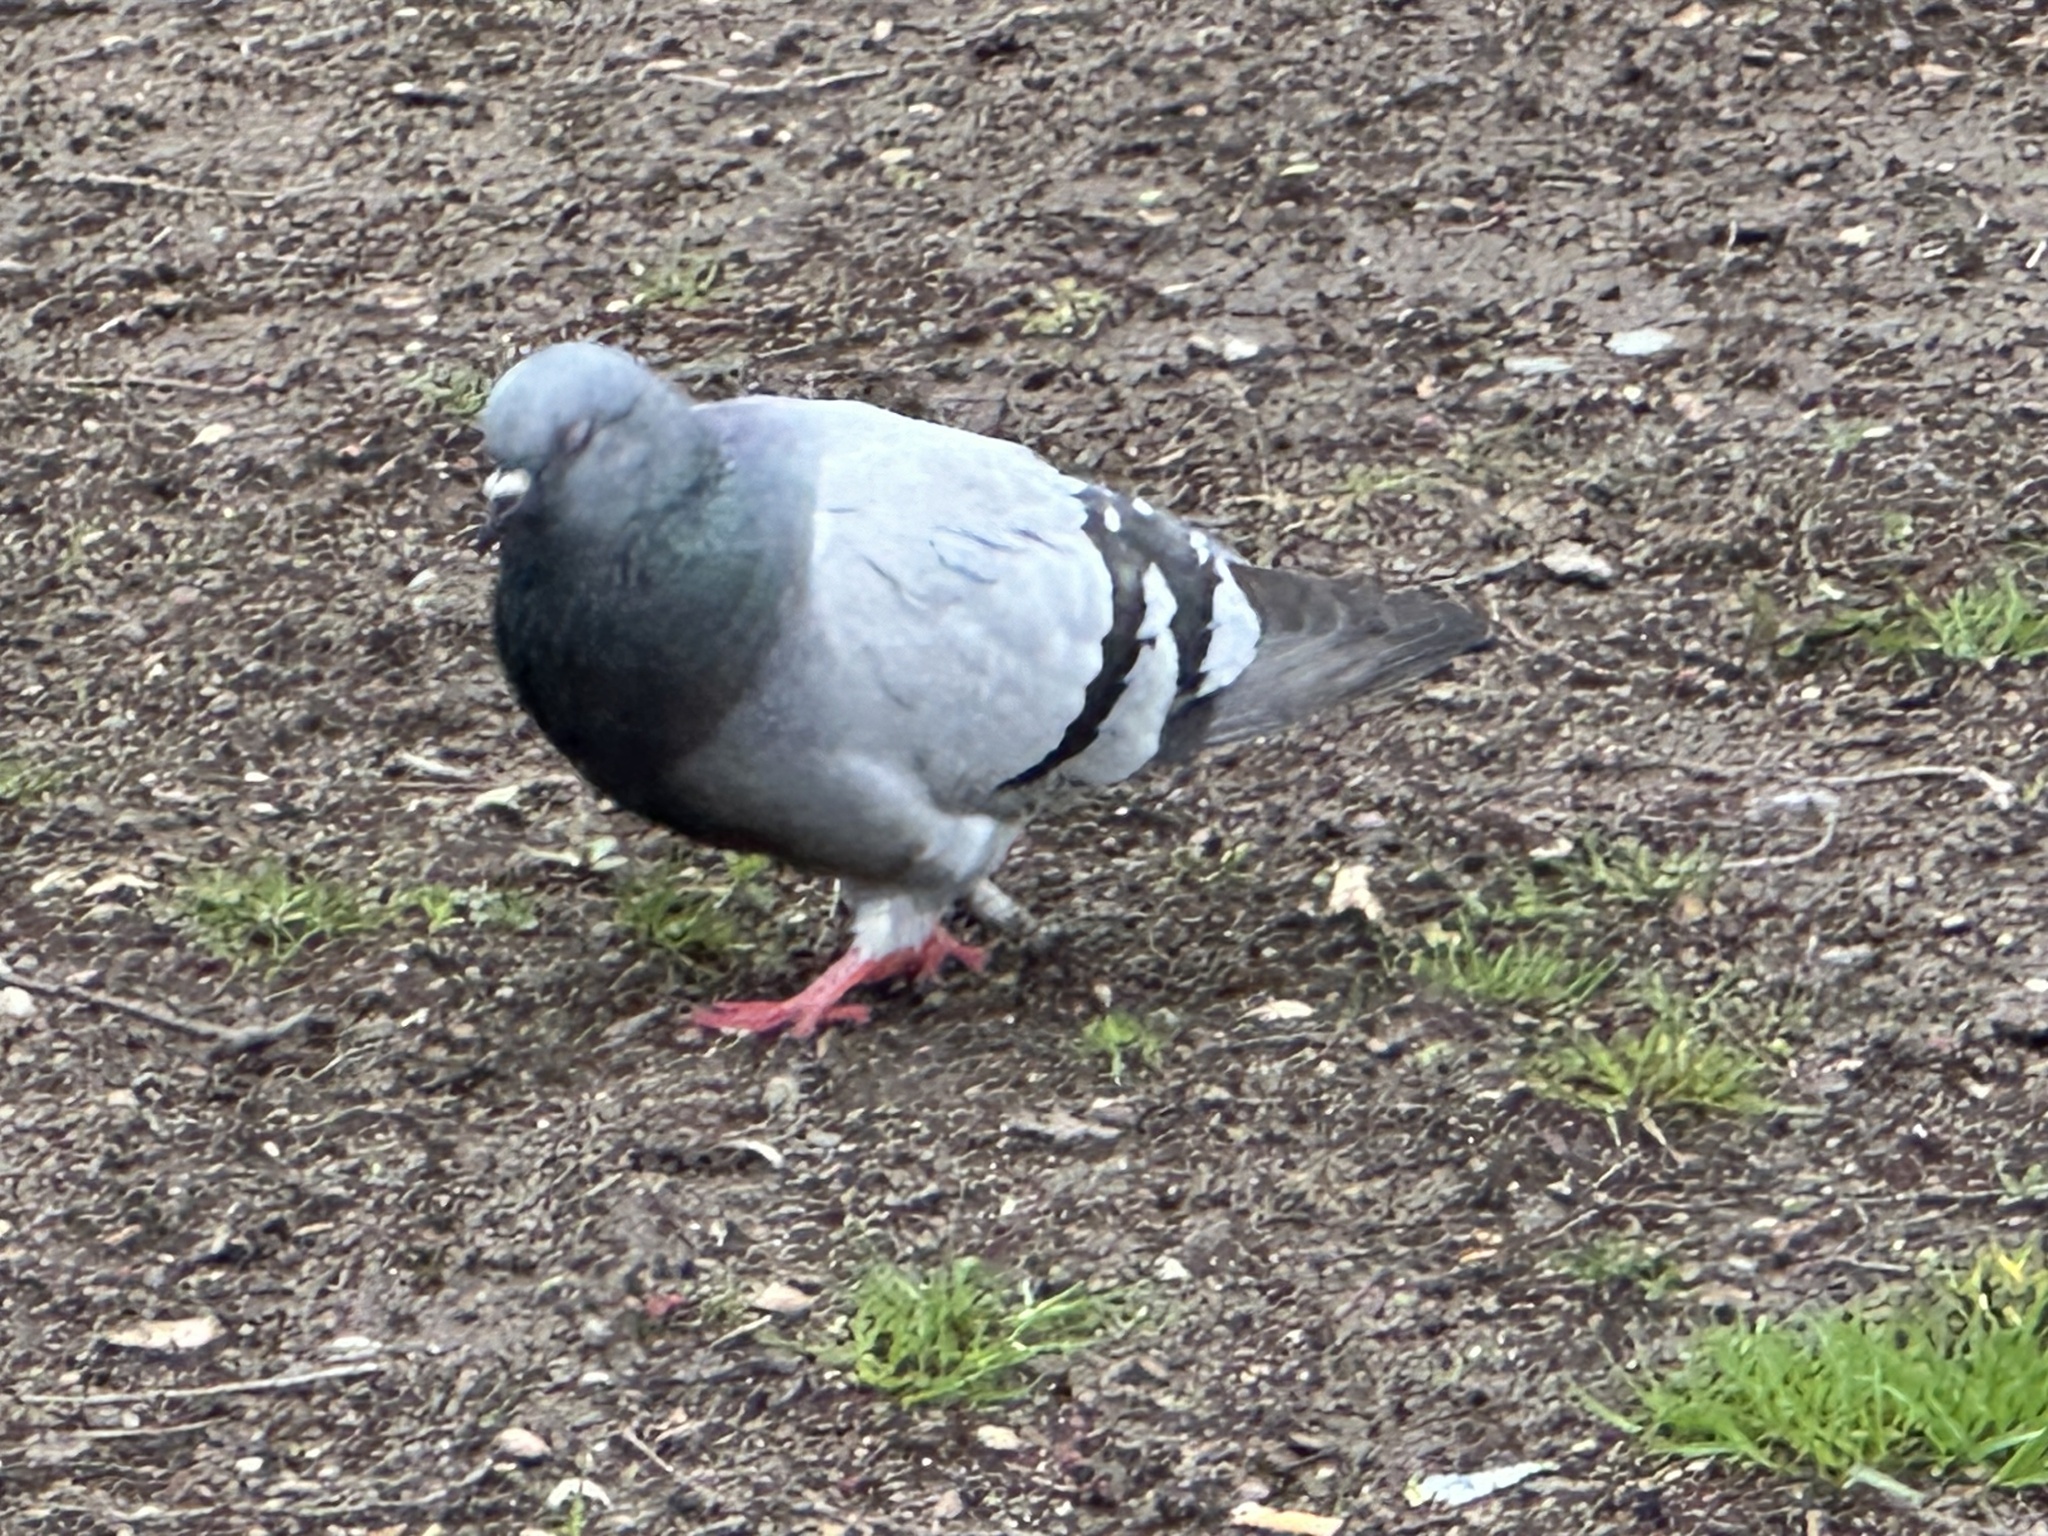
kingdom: Animalia
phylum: Chordata
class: Aves
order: Columbiformes
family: Columbidae
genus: Columba
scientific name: Columba livia
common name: Rock pigeon
